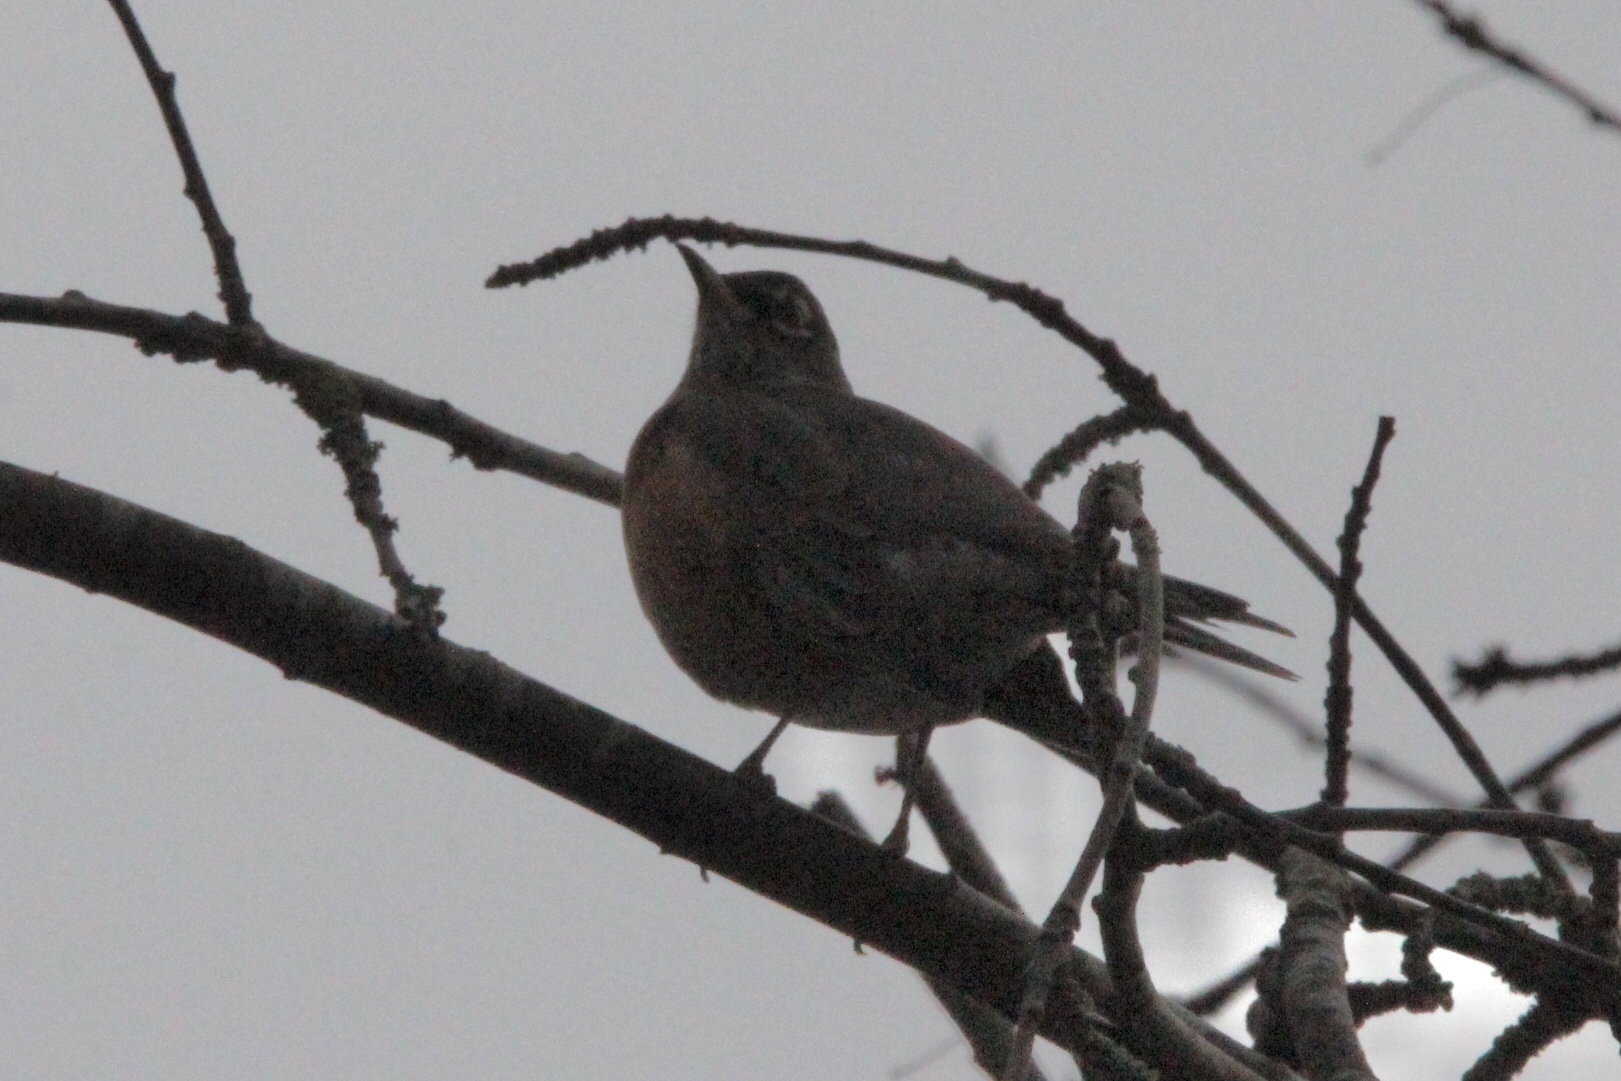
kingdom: Animalia
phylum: Chordata
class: Aves
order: Passeriformes
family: Turdidae
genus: Turdus
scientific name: Turdus migratorius
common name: American robin
